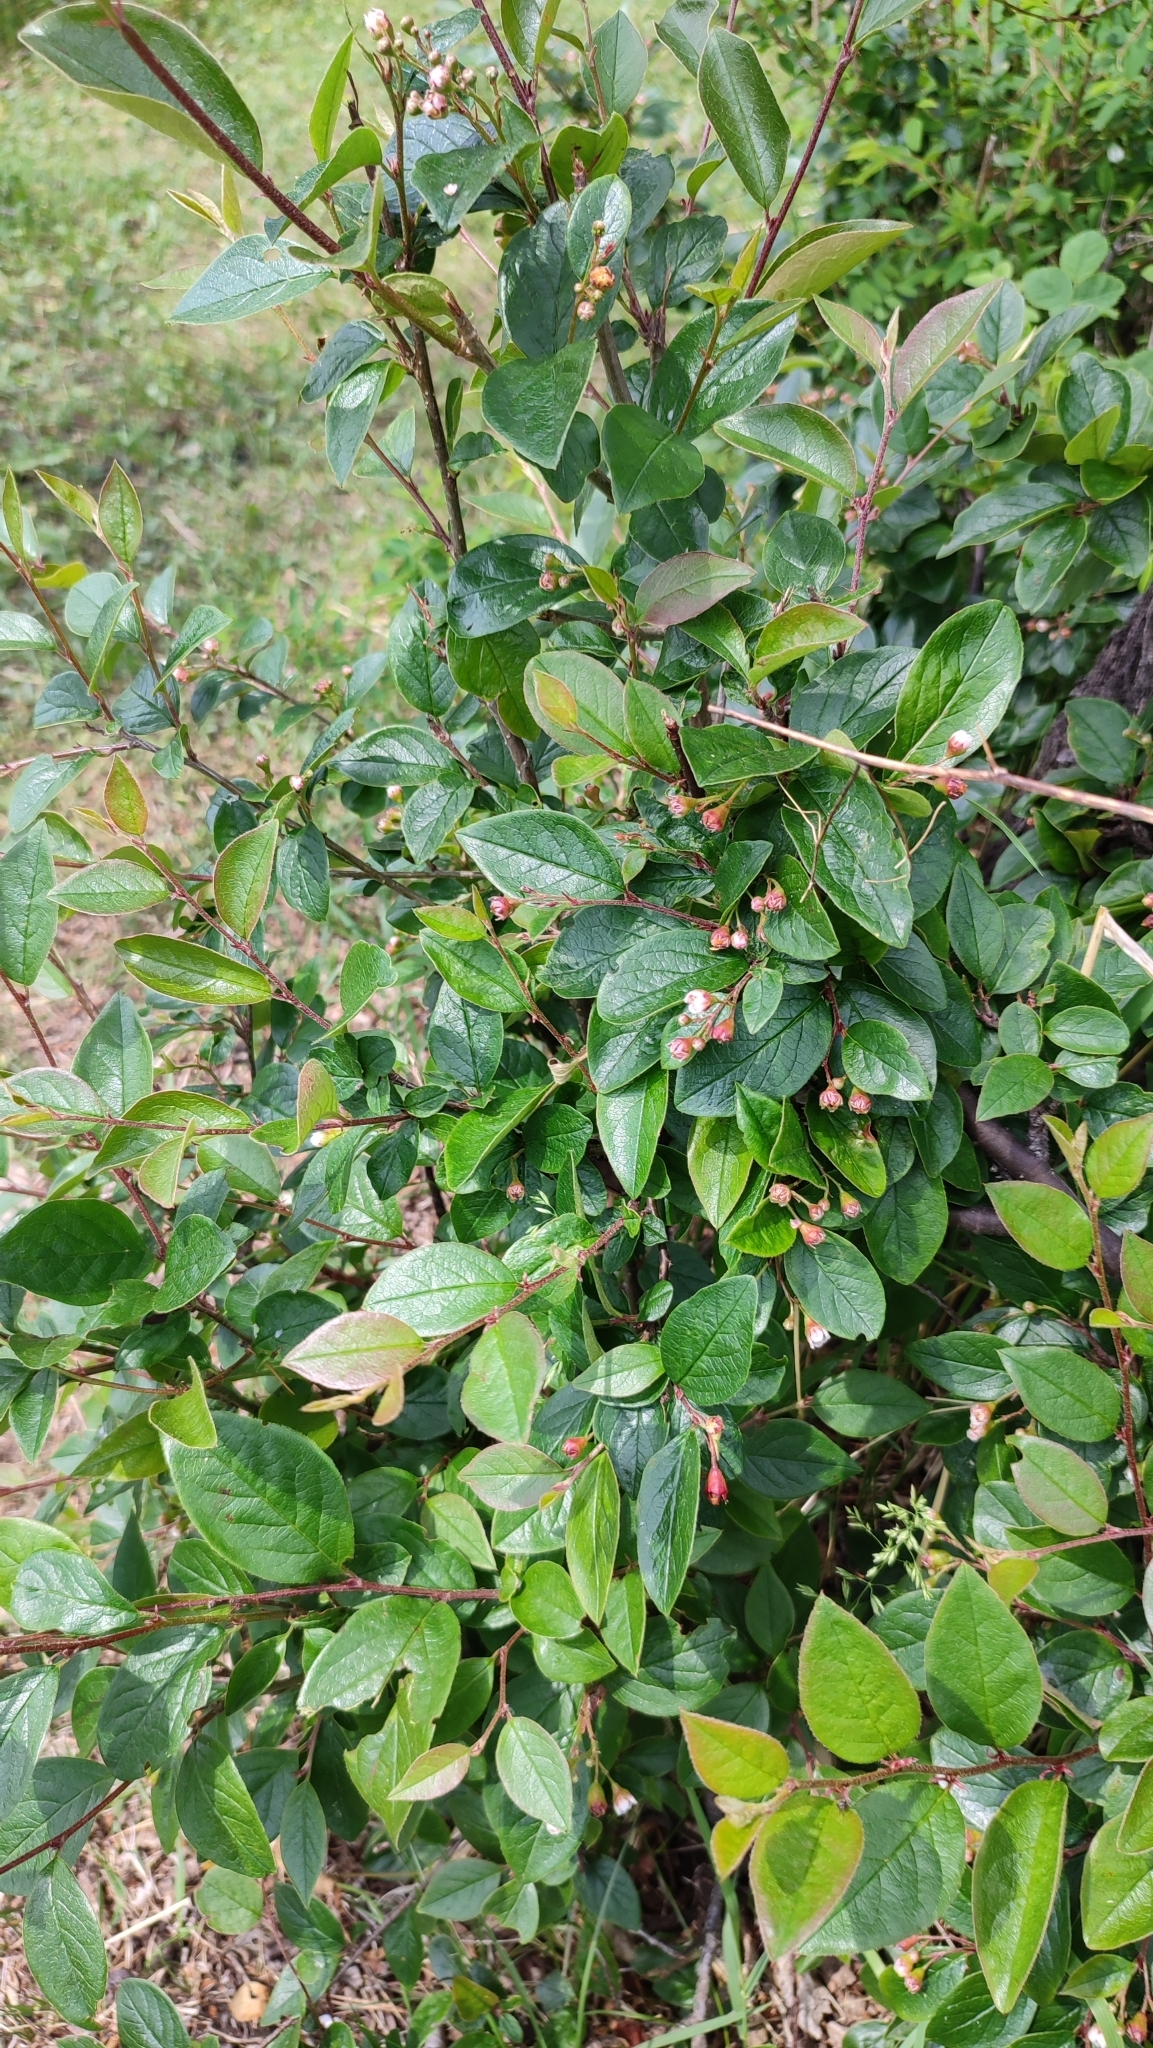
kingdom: Plantae
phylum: Tracheophyta
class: Magnoliopsida
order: Rosales
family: Rosaceae
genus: Cotoneaster
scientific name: Cotoneaster acutifolius
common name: Peking cotoneaster
